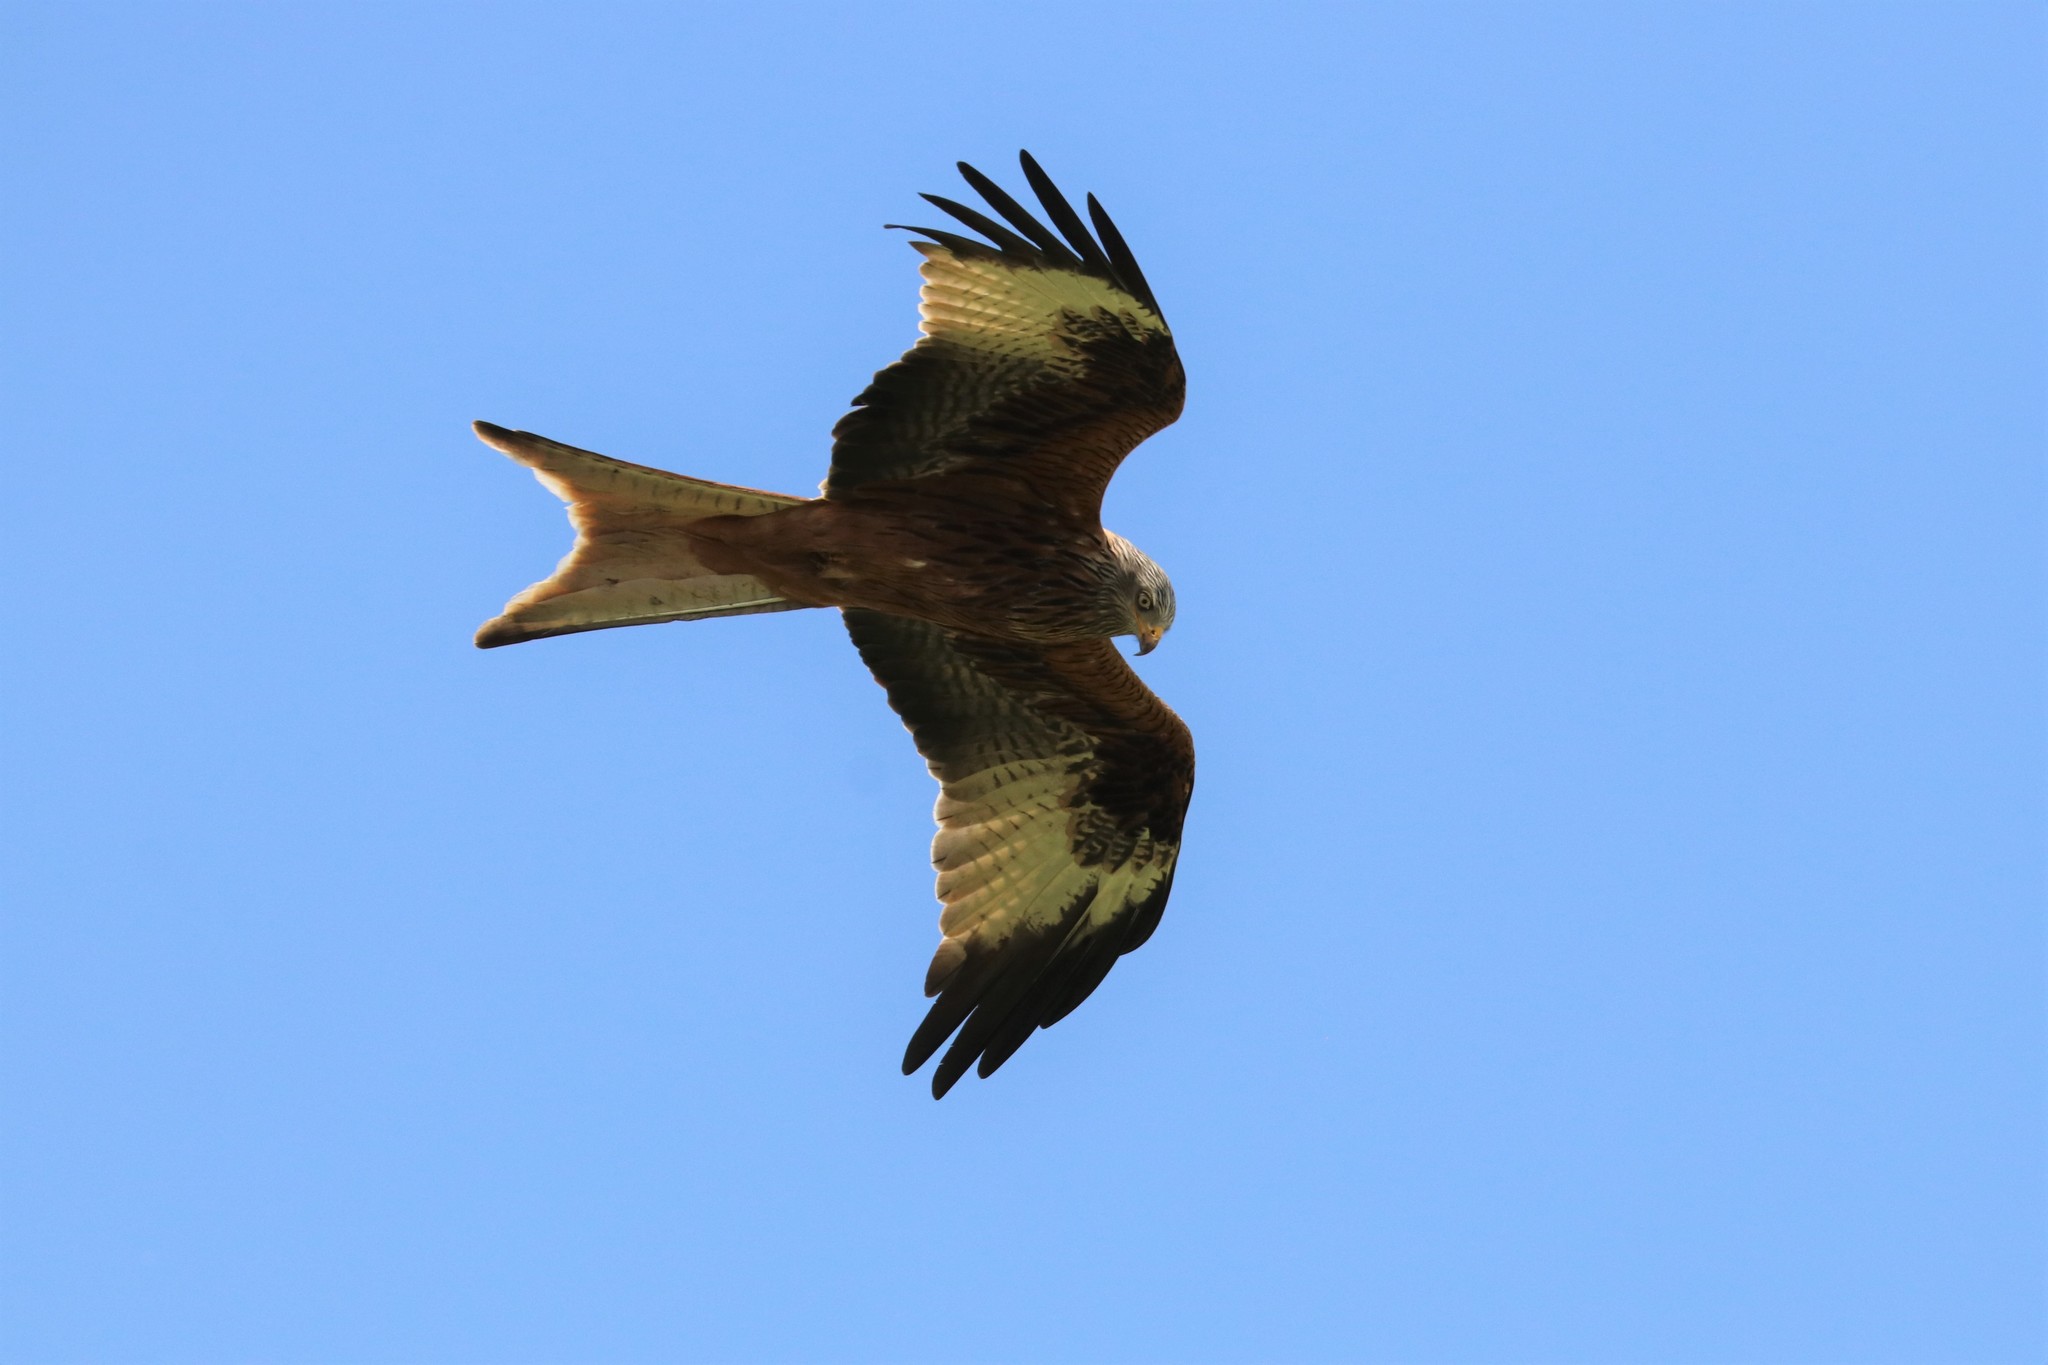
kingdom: Animalia
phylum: Chordata
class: Aves
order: Accipitriformes
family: Accipitridae
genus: Milvus
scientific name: Milvus milvus
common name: Red kite
